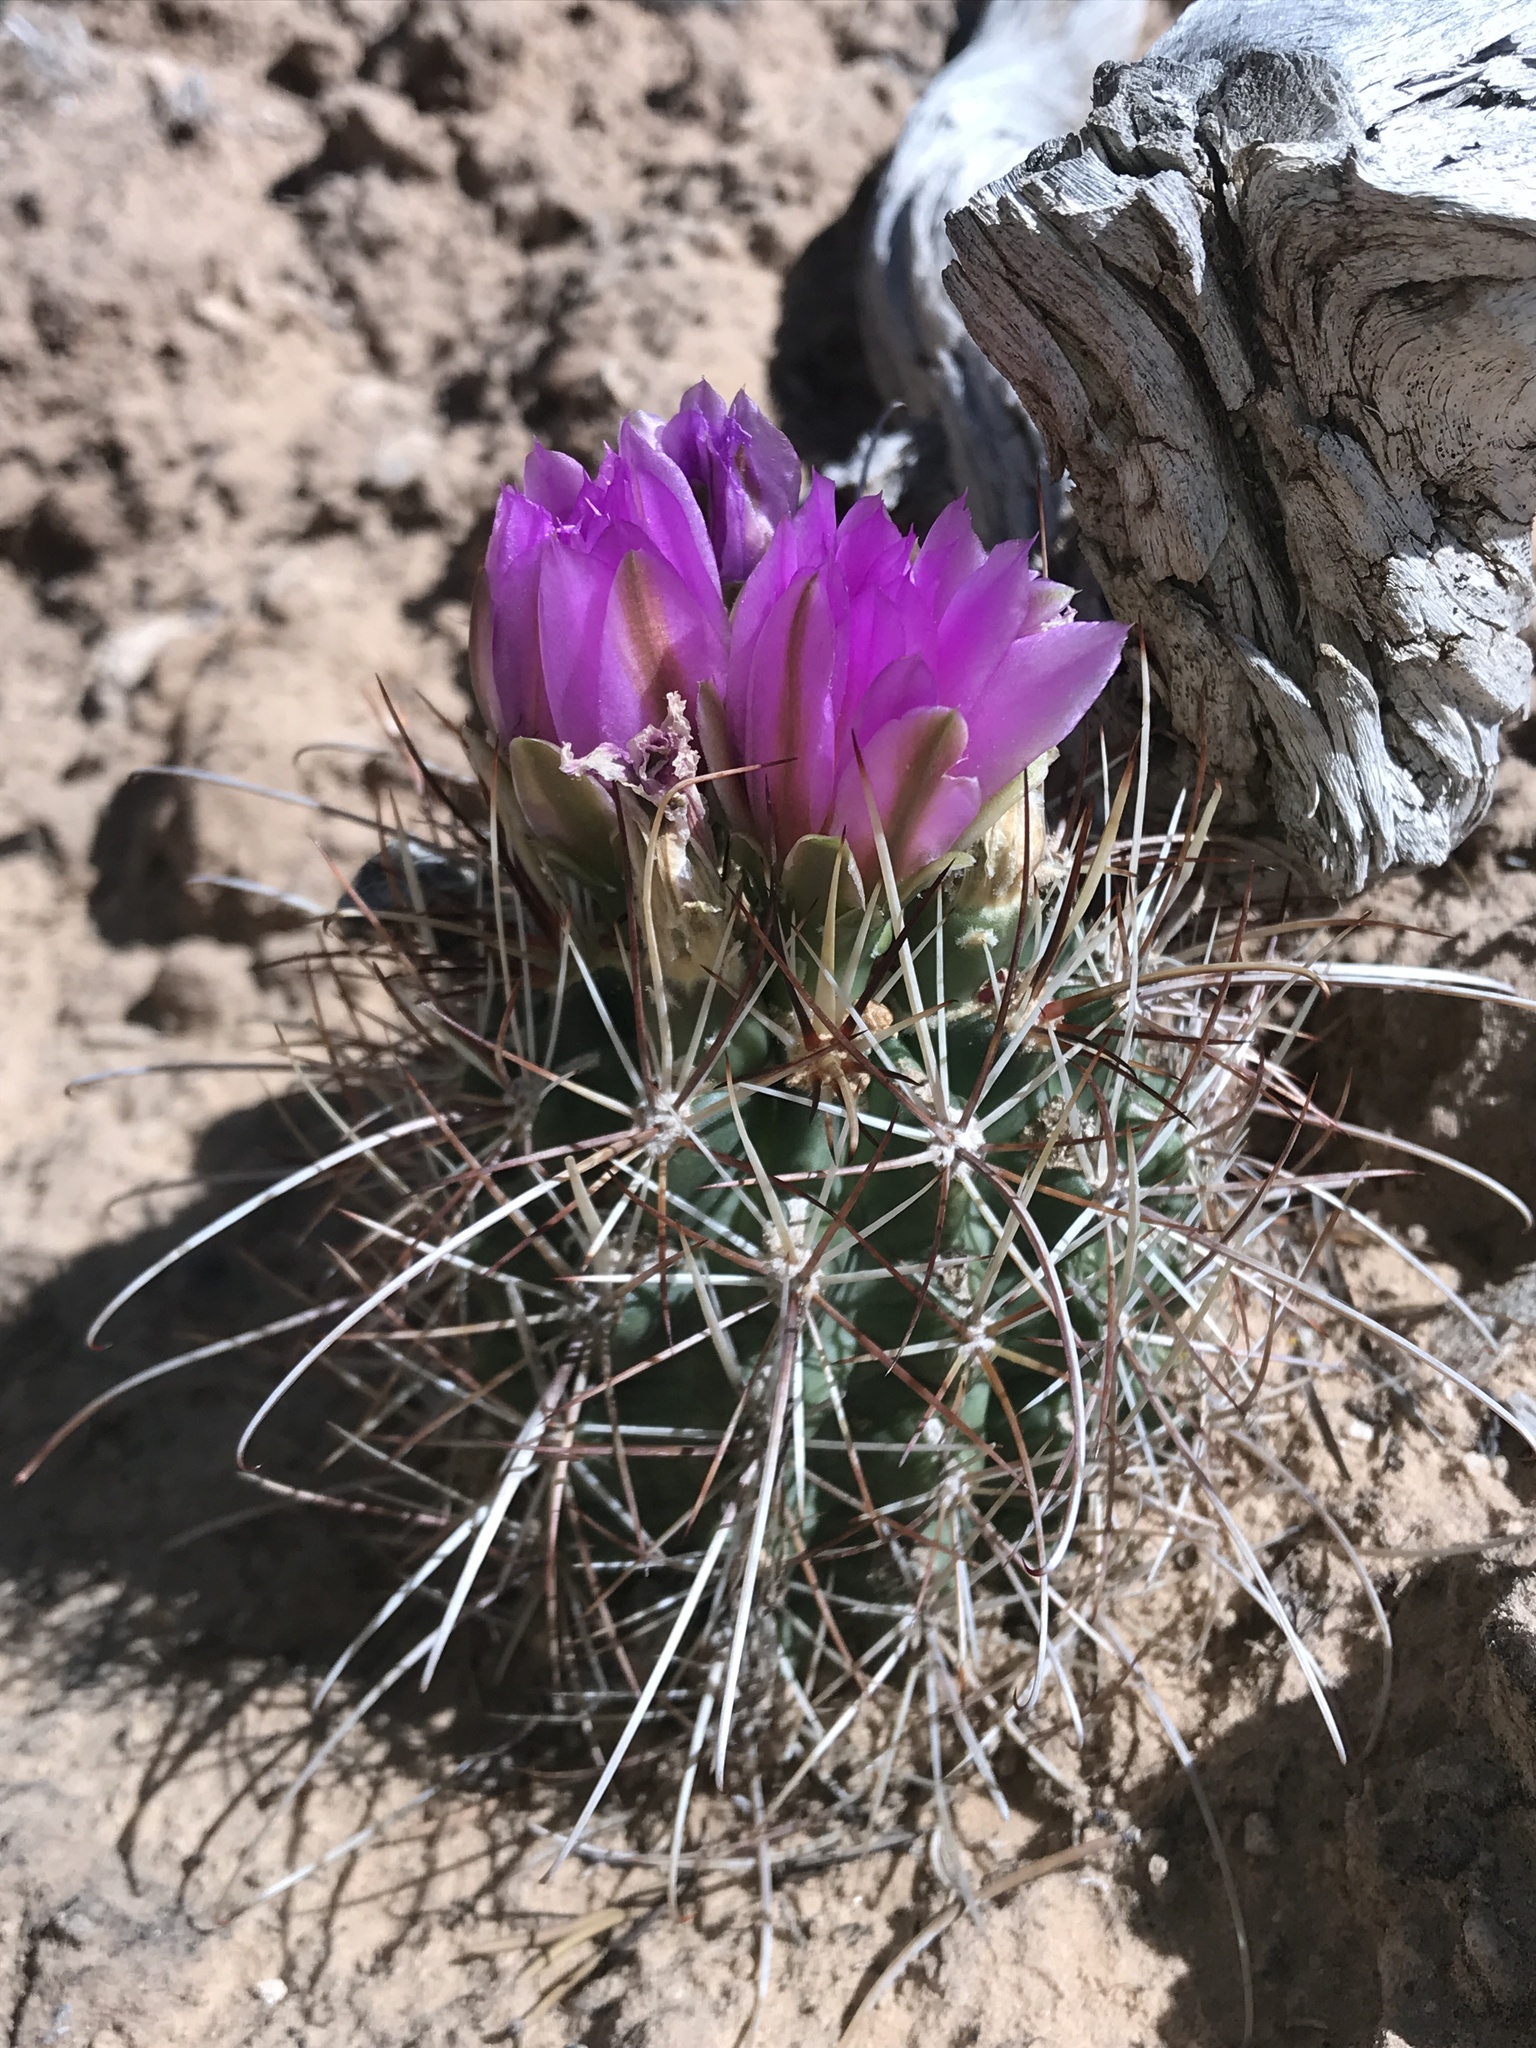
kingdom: Plantae
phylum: Tracheophyta
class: Magnoliopsida
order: Caryophyllales
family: Cactaceae
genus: Sclerocactus
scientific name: Sclerocactus parviflorus
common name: Small-flower fishhook cactus
